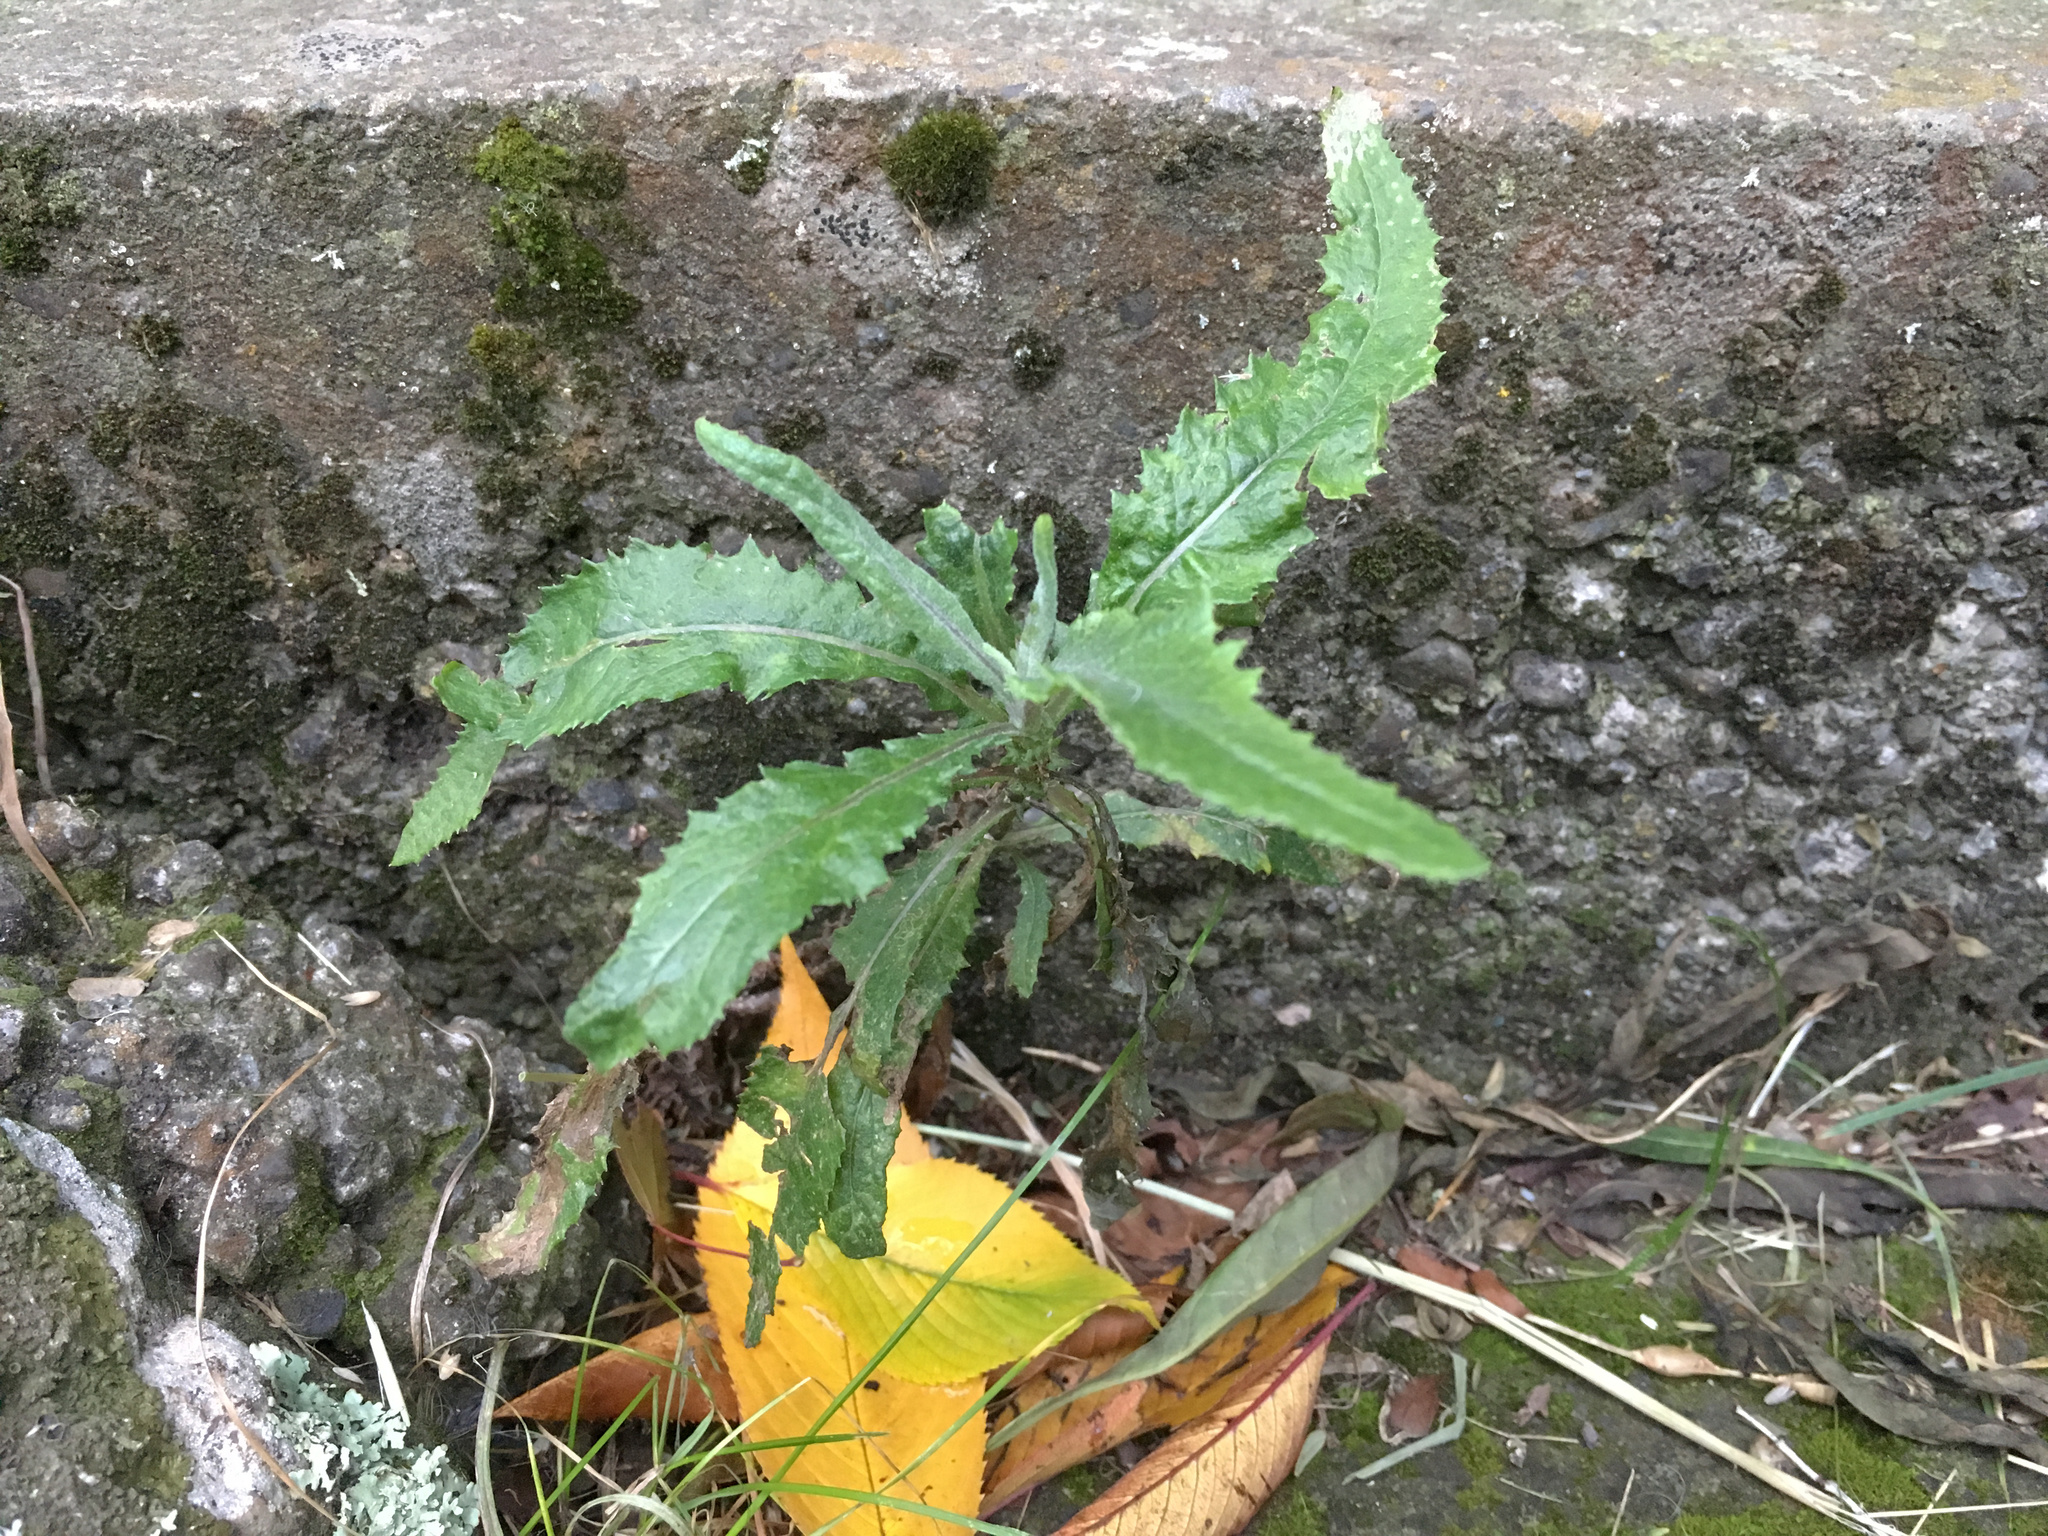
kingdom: Plantae
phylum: Tracheophyta
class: Magnoliopsida
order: Asterales
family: Asteraceae
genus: Senecio
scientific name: Senecio minimus
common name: Toothed fireweed
